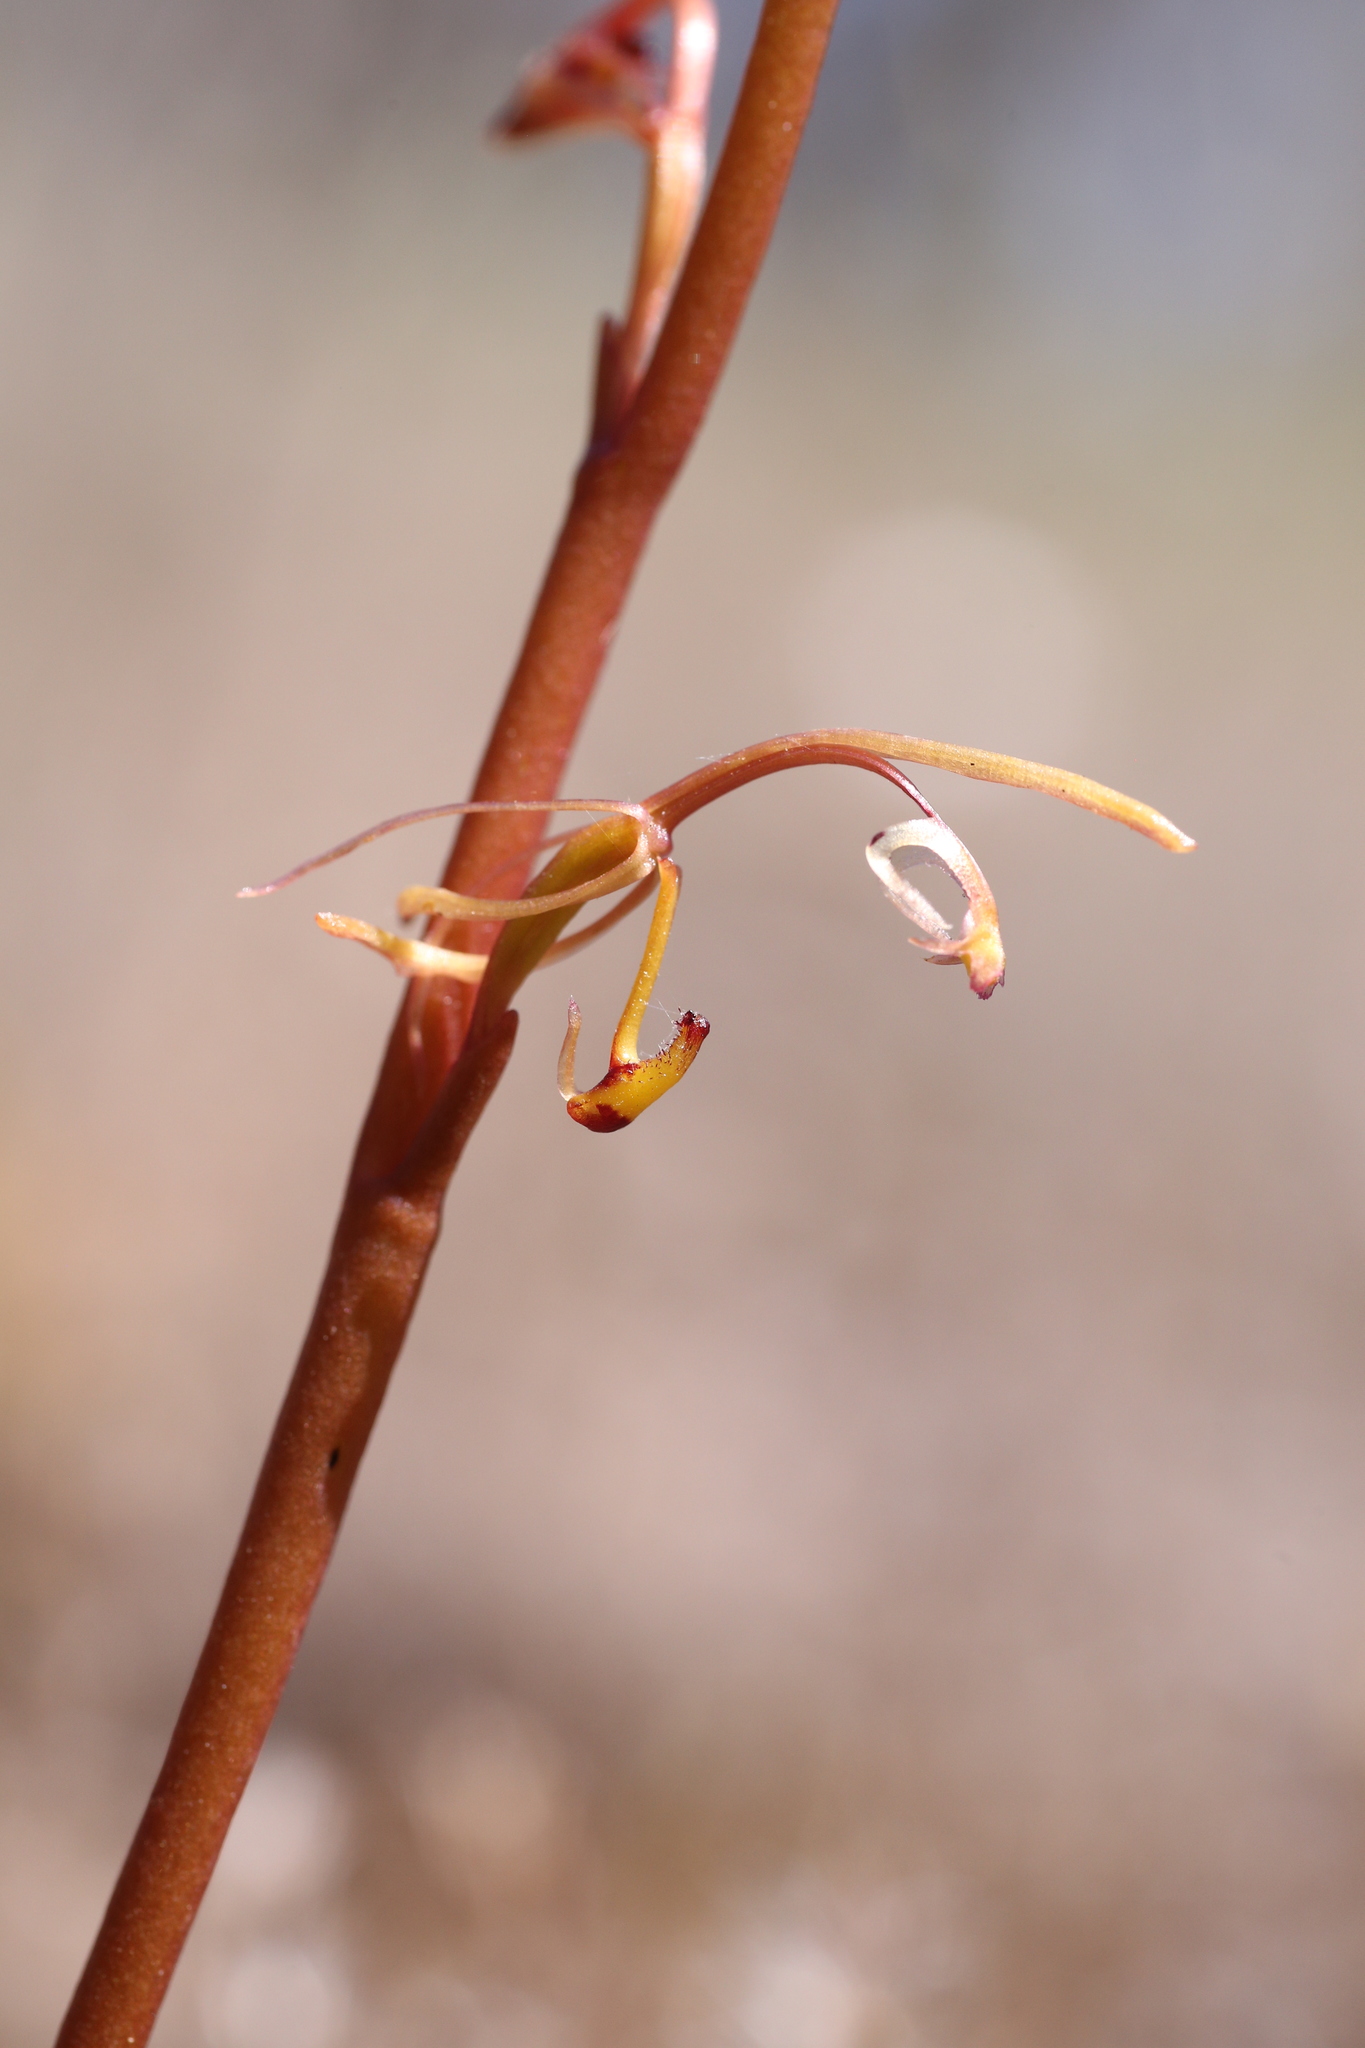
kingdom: Plantae
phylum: Tracheophyta
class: Liliopsida
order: Asparagales
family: Orchidaceae
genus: Spiculaea
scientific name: Spiculaea ciliata
